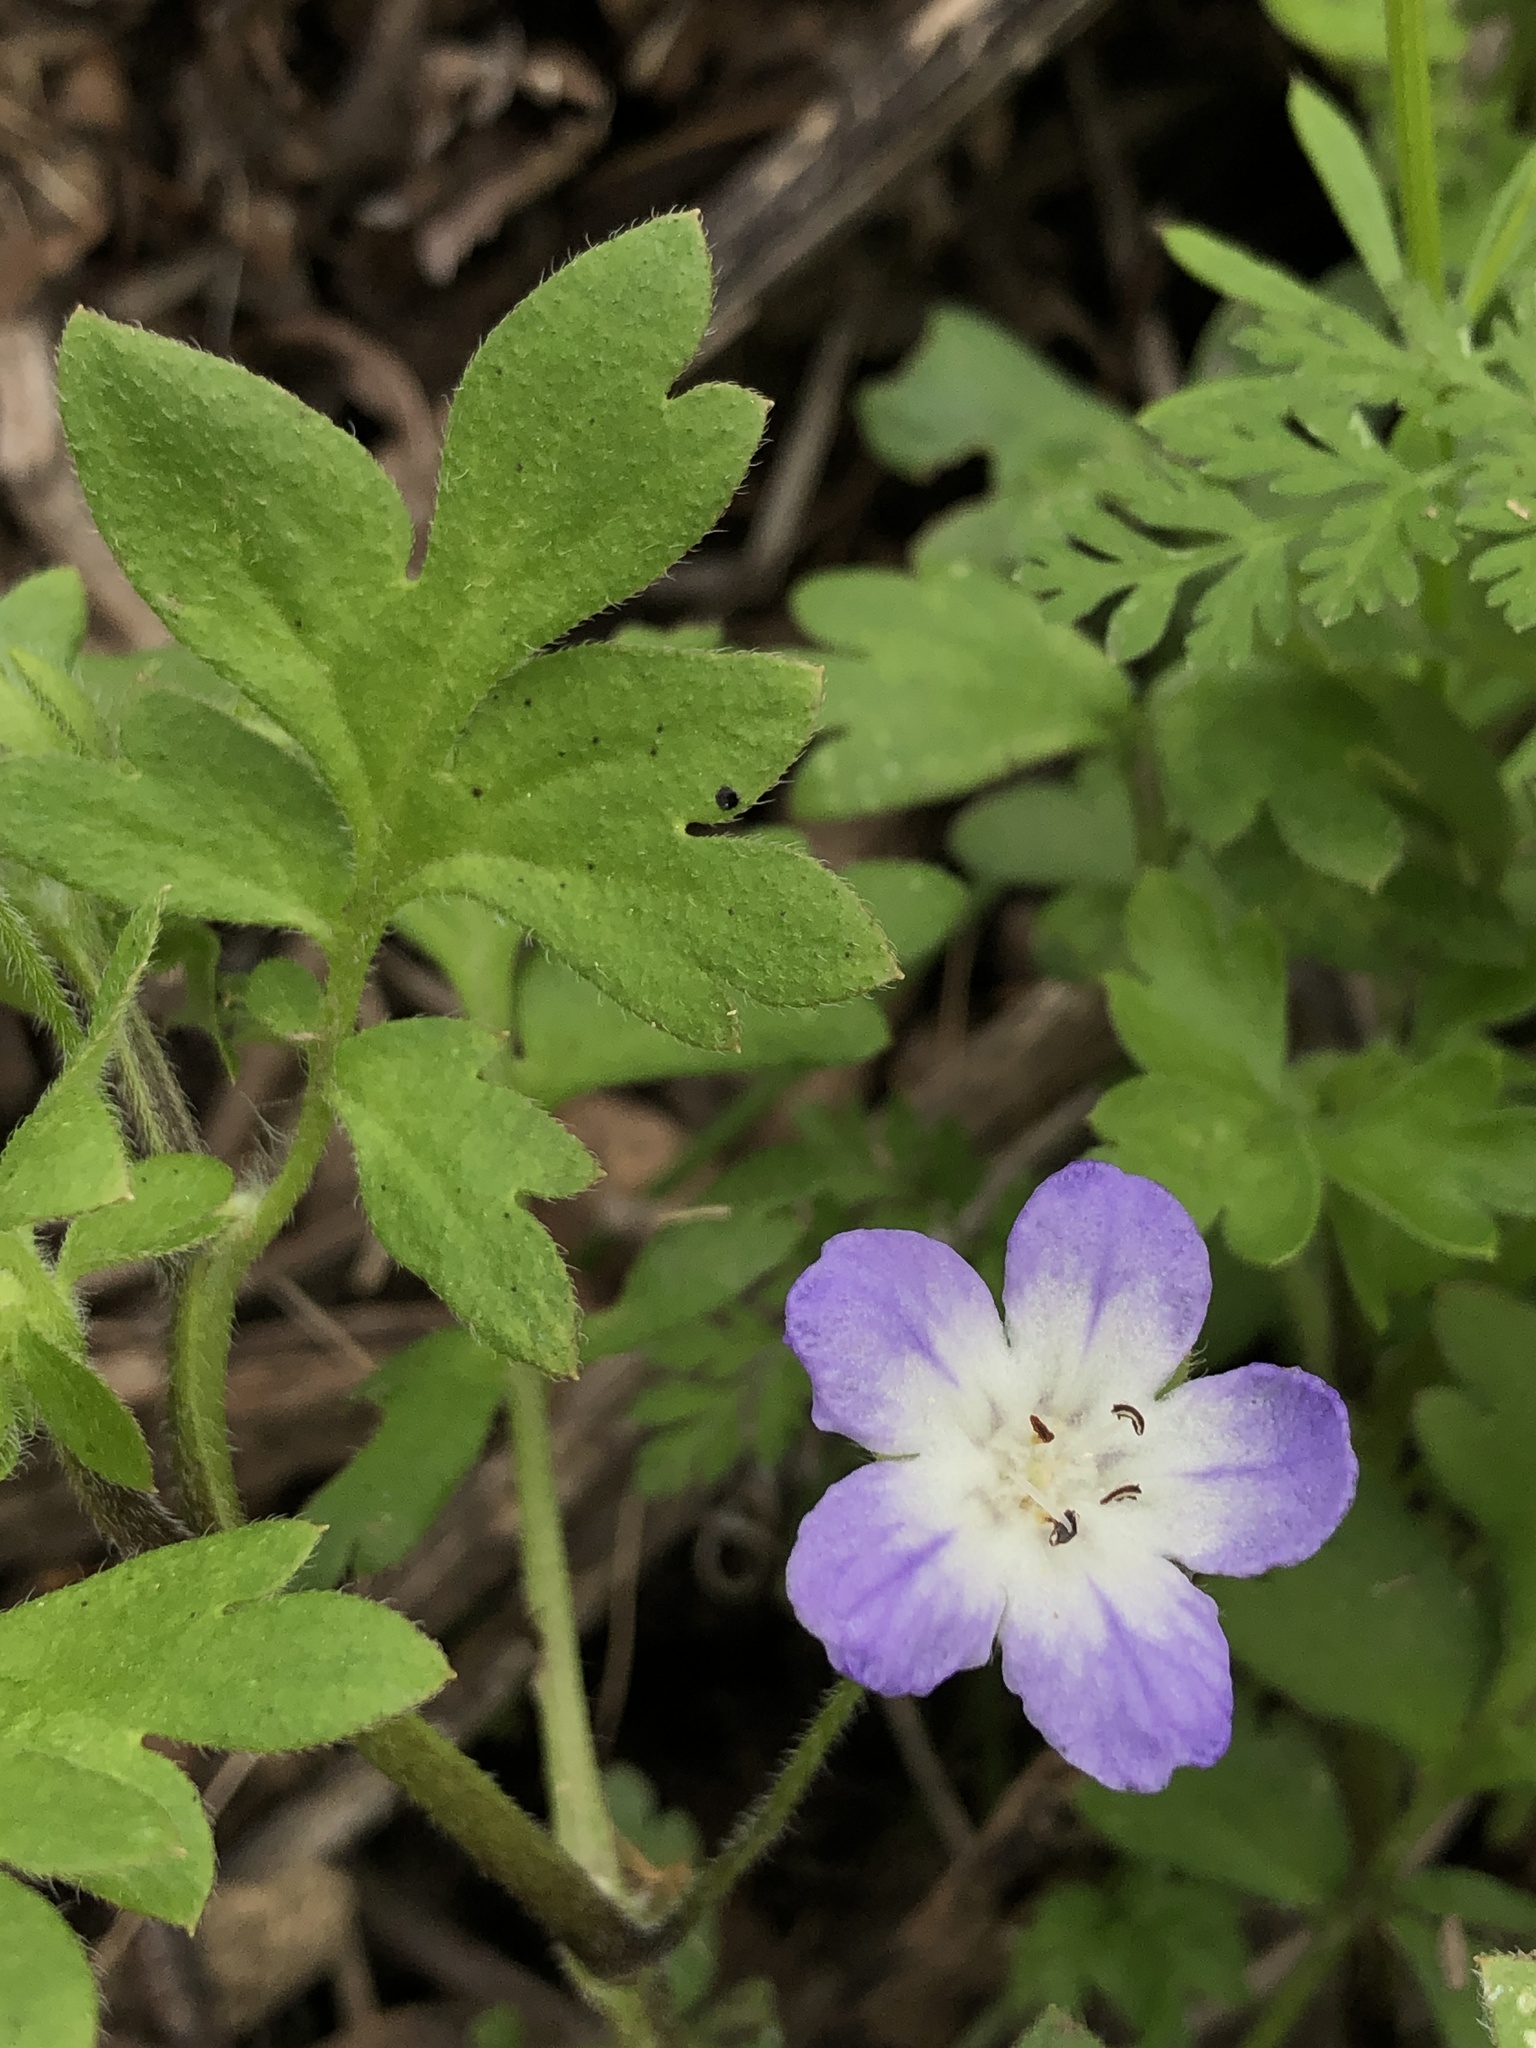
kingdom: Plantae
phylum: Tracheophyta
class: Magnoliopsida
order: Boraginales
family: Hydrophyllaceae
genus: Nemophila
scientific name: Nemophila phacelioides
